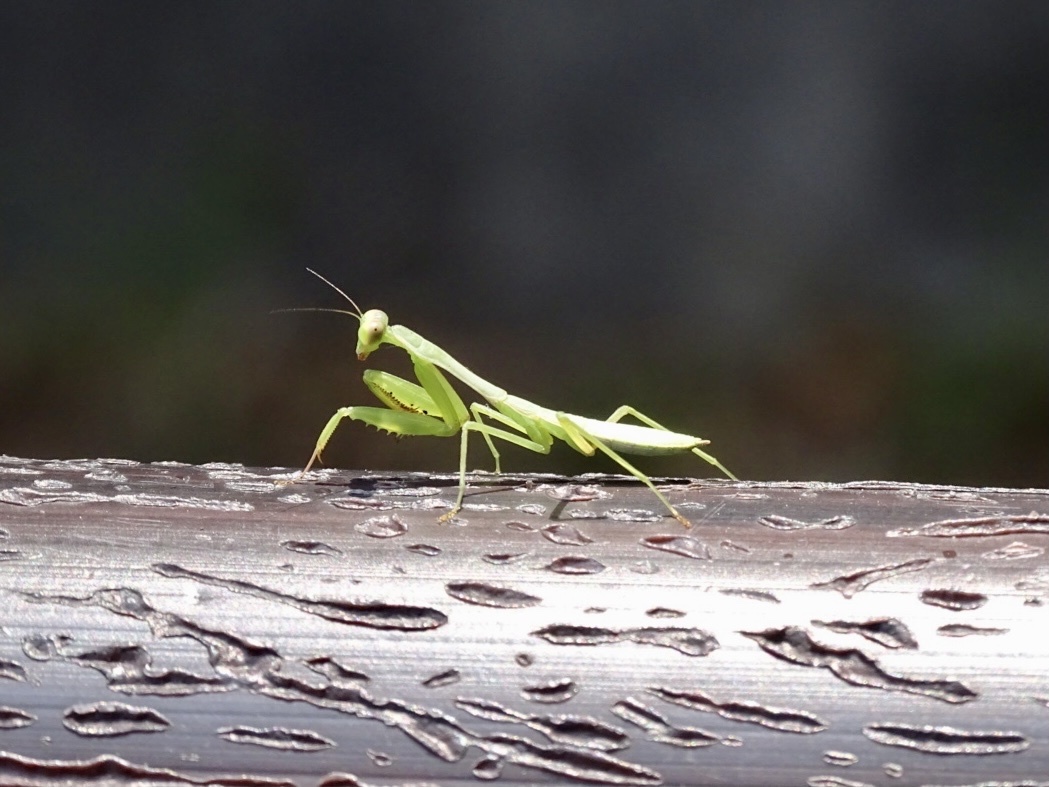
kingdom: Animalia
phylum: Arthropoda
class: Insecta
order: Mantodea
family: Mantidae
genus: Titanodula
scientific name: Titanodula formosana
